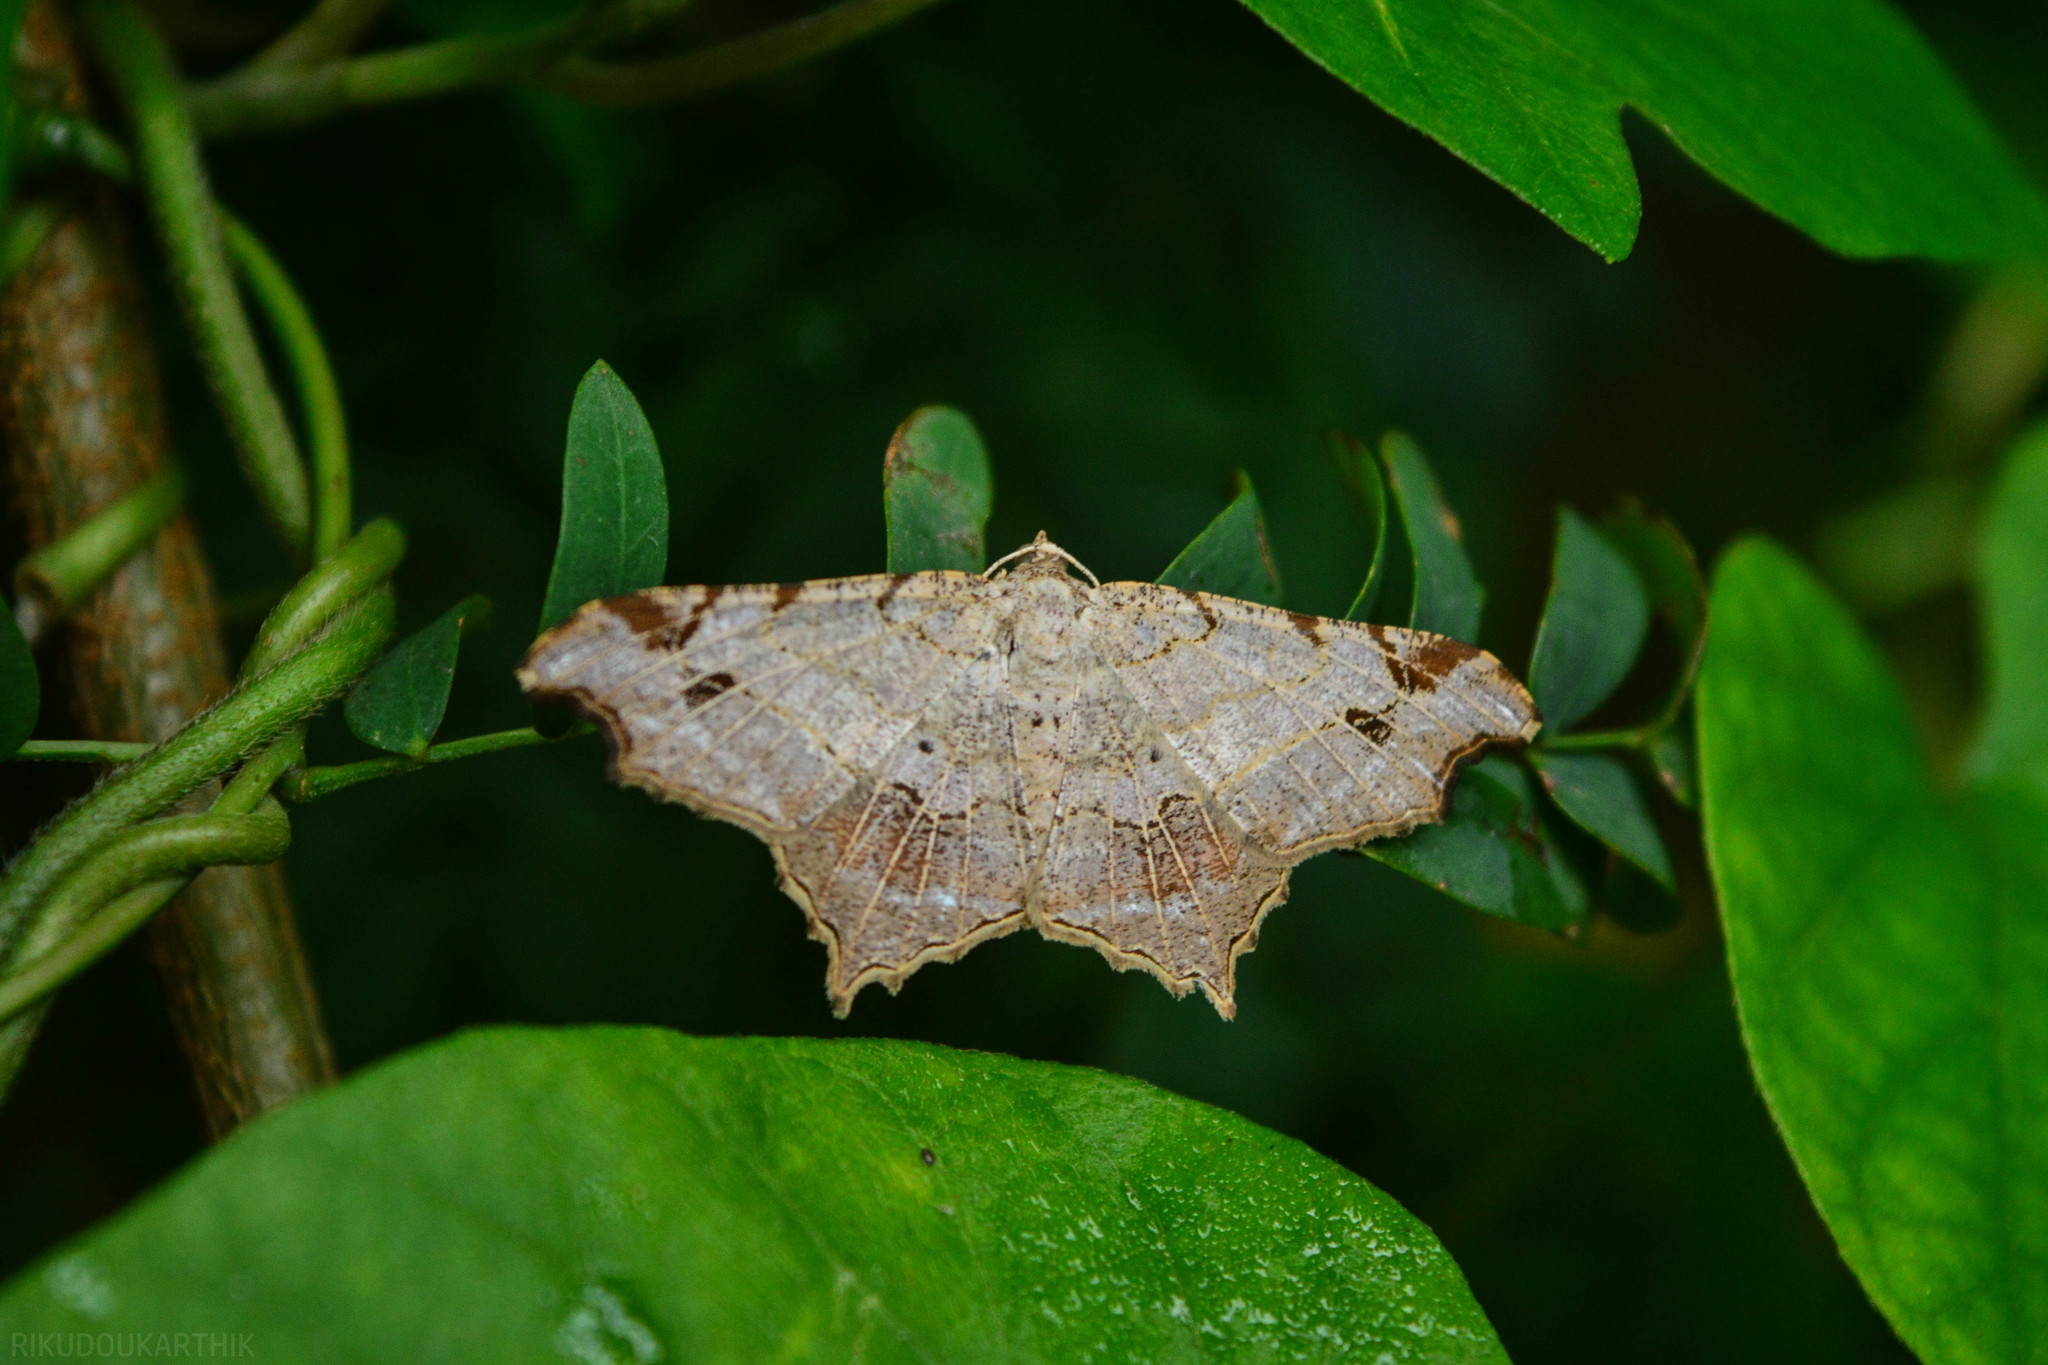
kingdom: Animalia
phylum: Arthropoda
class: Insecta
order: Lepidoptera
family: Geometridae
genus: Chiasmia
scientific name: Chiasmia emersaria
